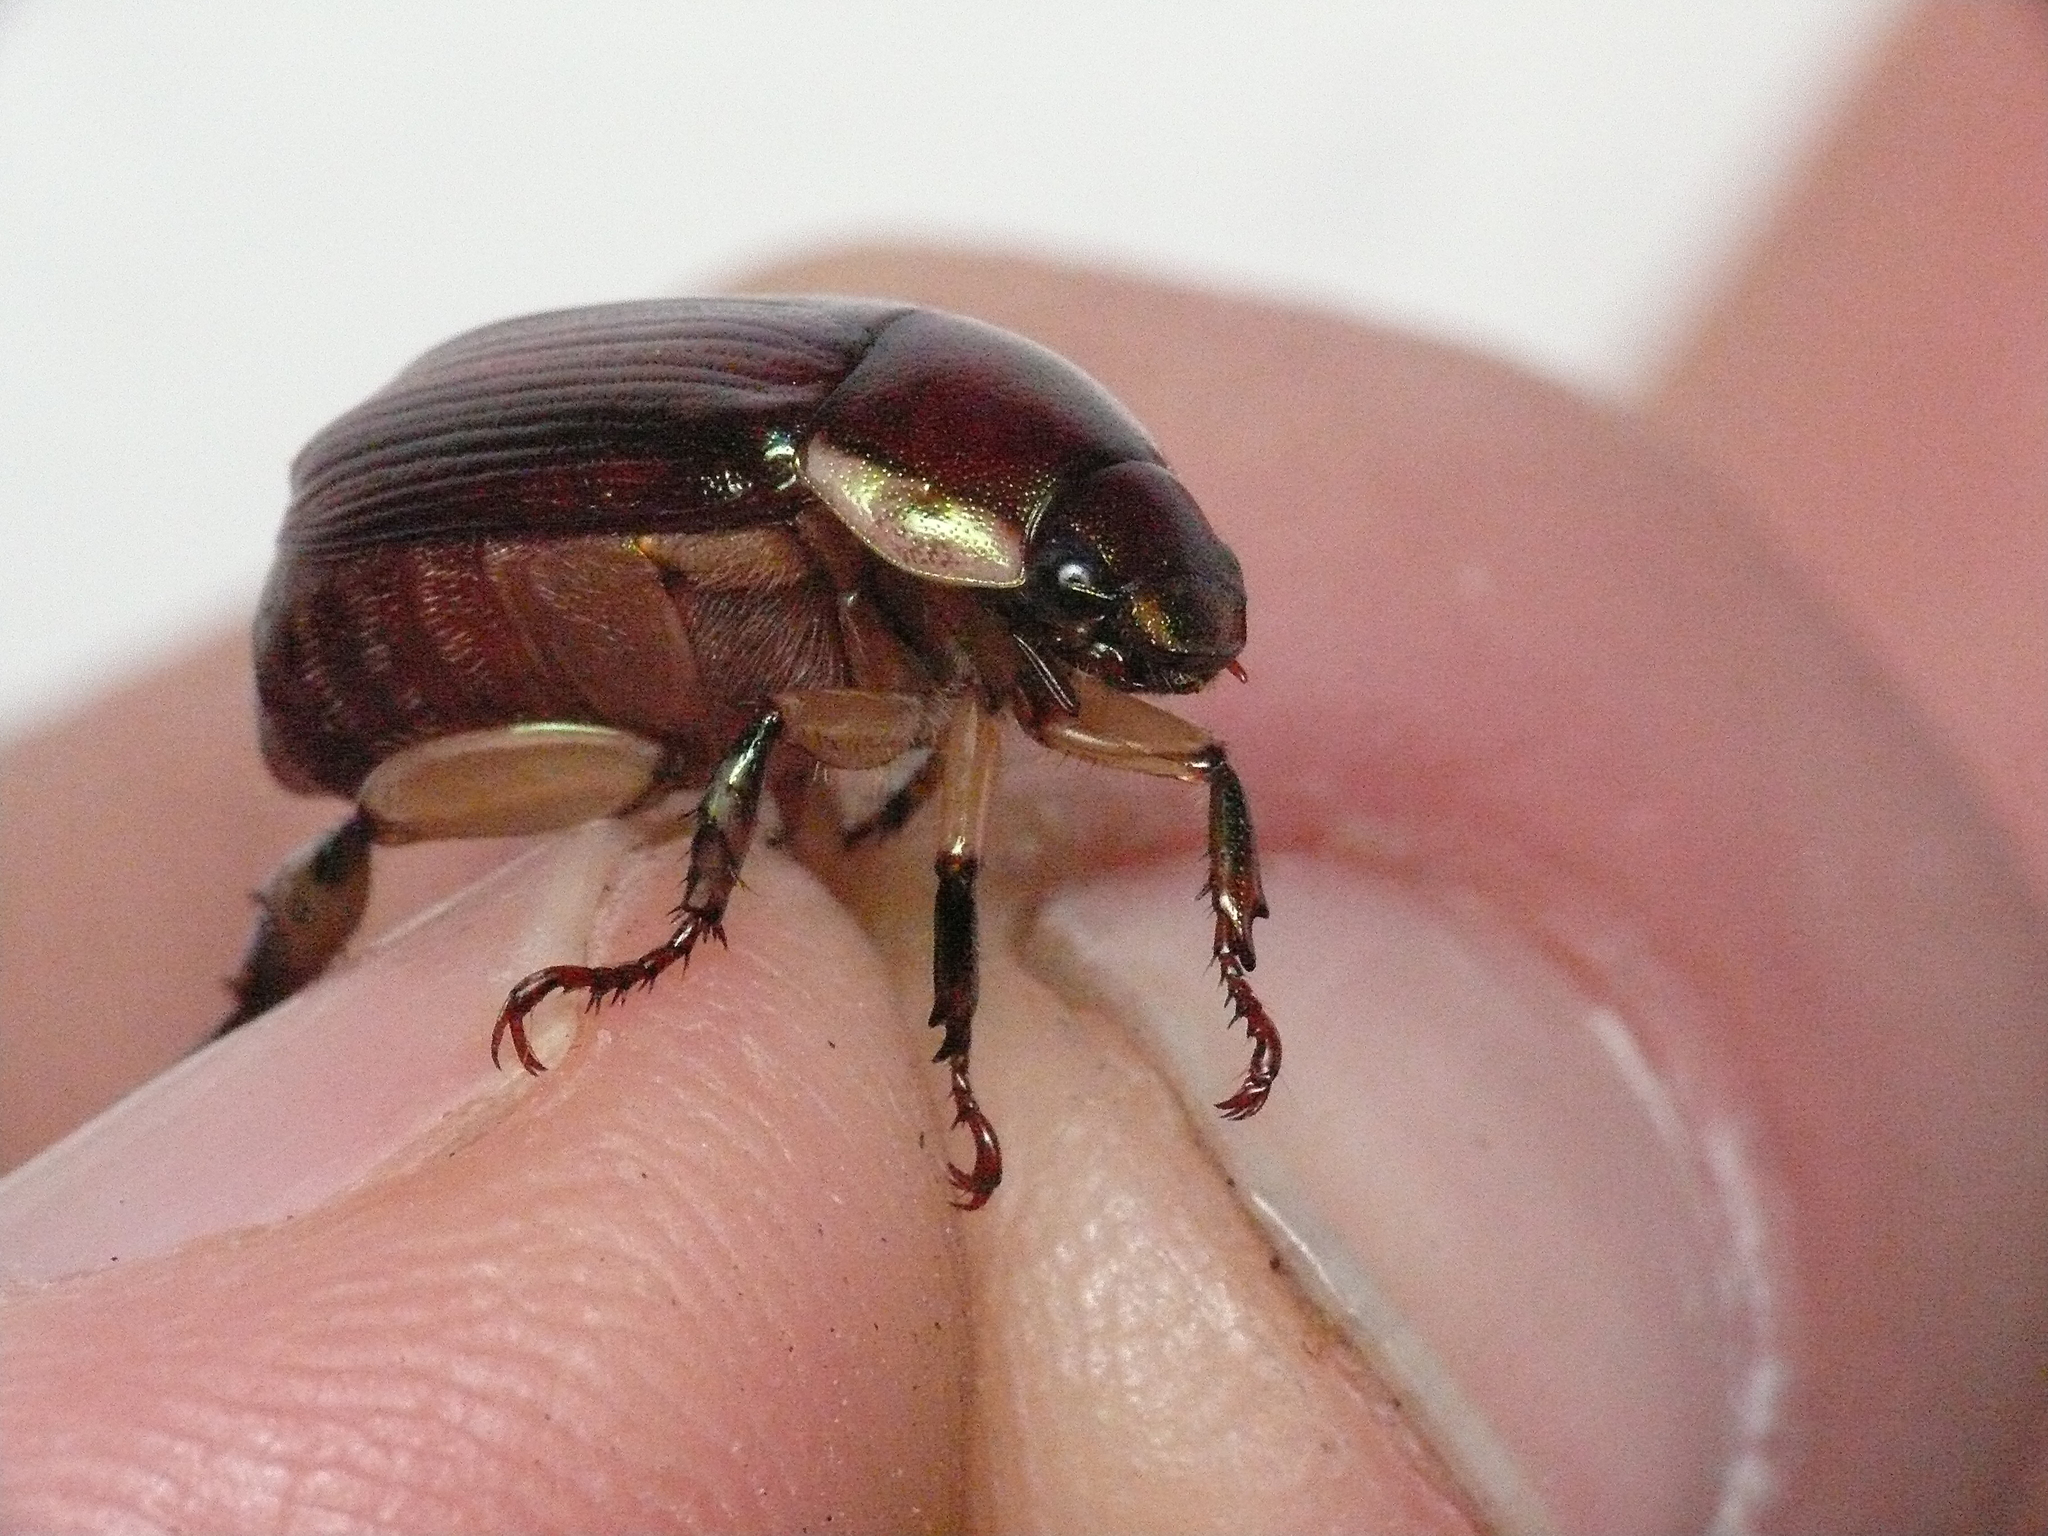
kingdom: Animalia
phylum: Arthropoda
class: Insecta
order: Coleoptera
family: Scarabaeidae
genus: Callistethus
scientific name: Callistethus marginatus
